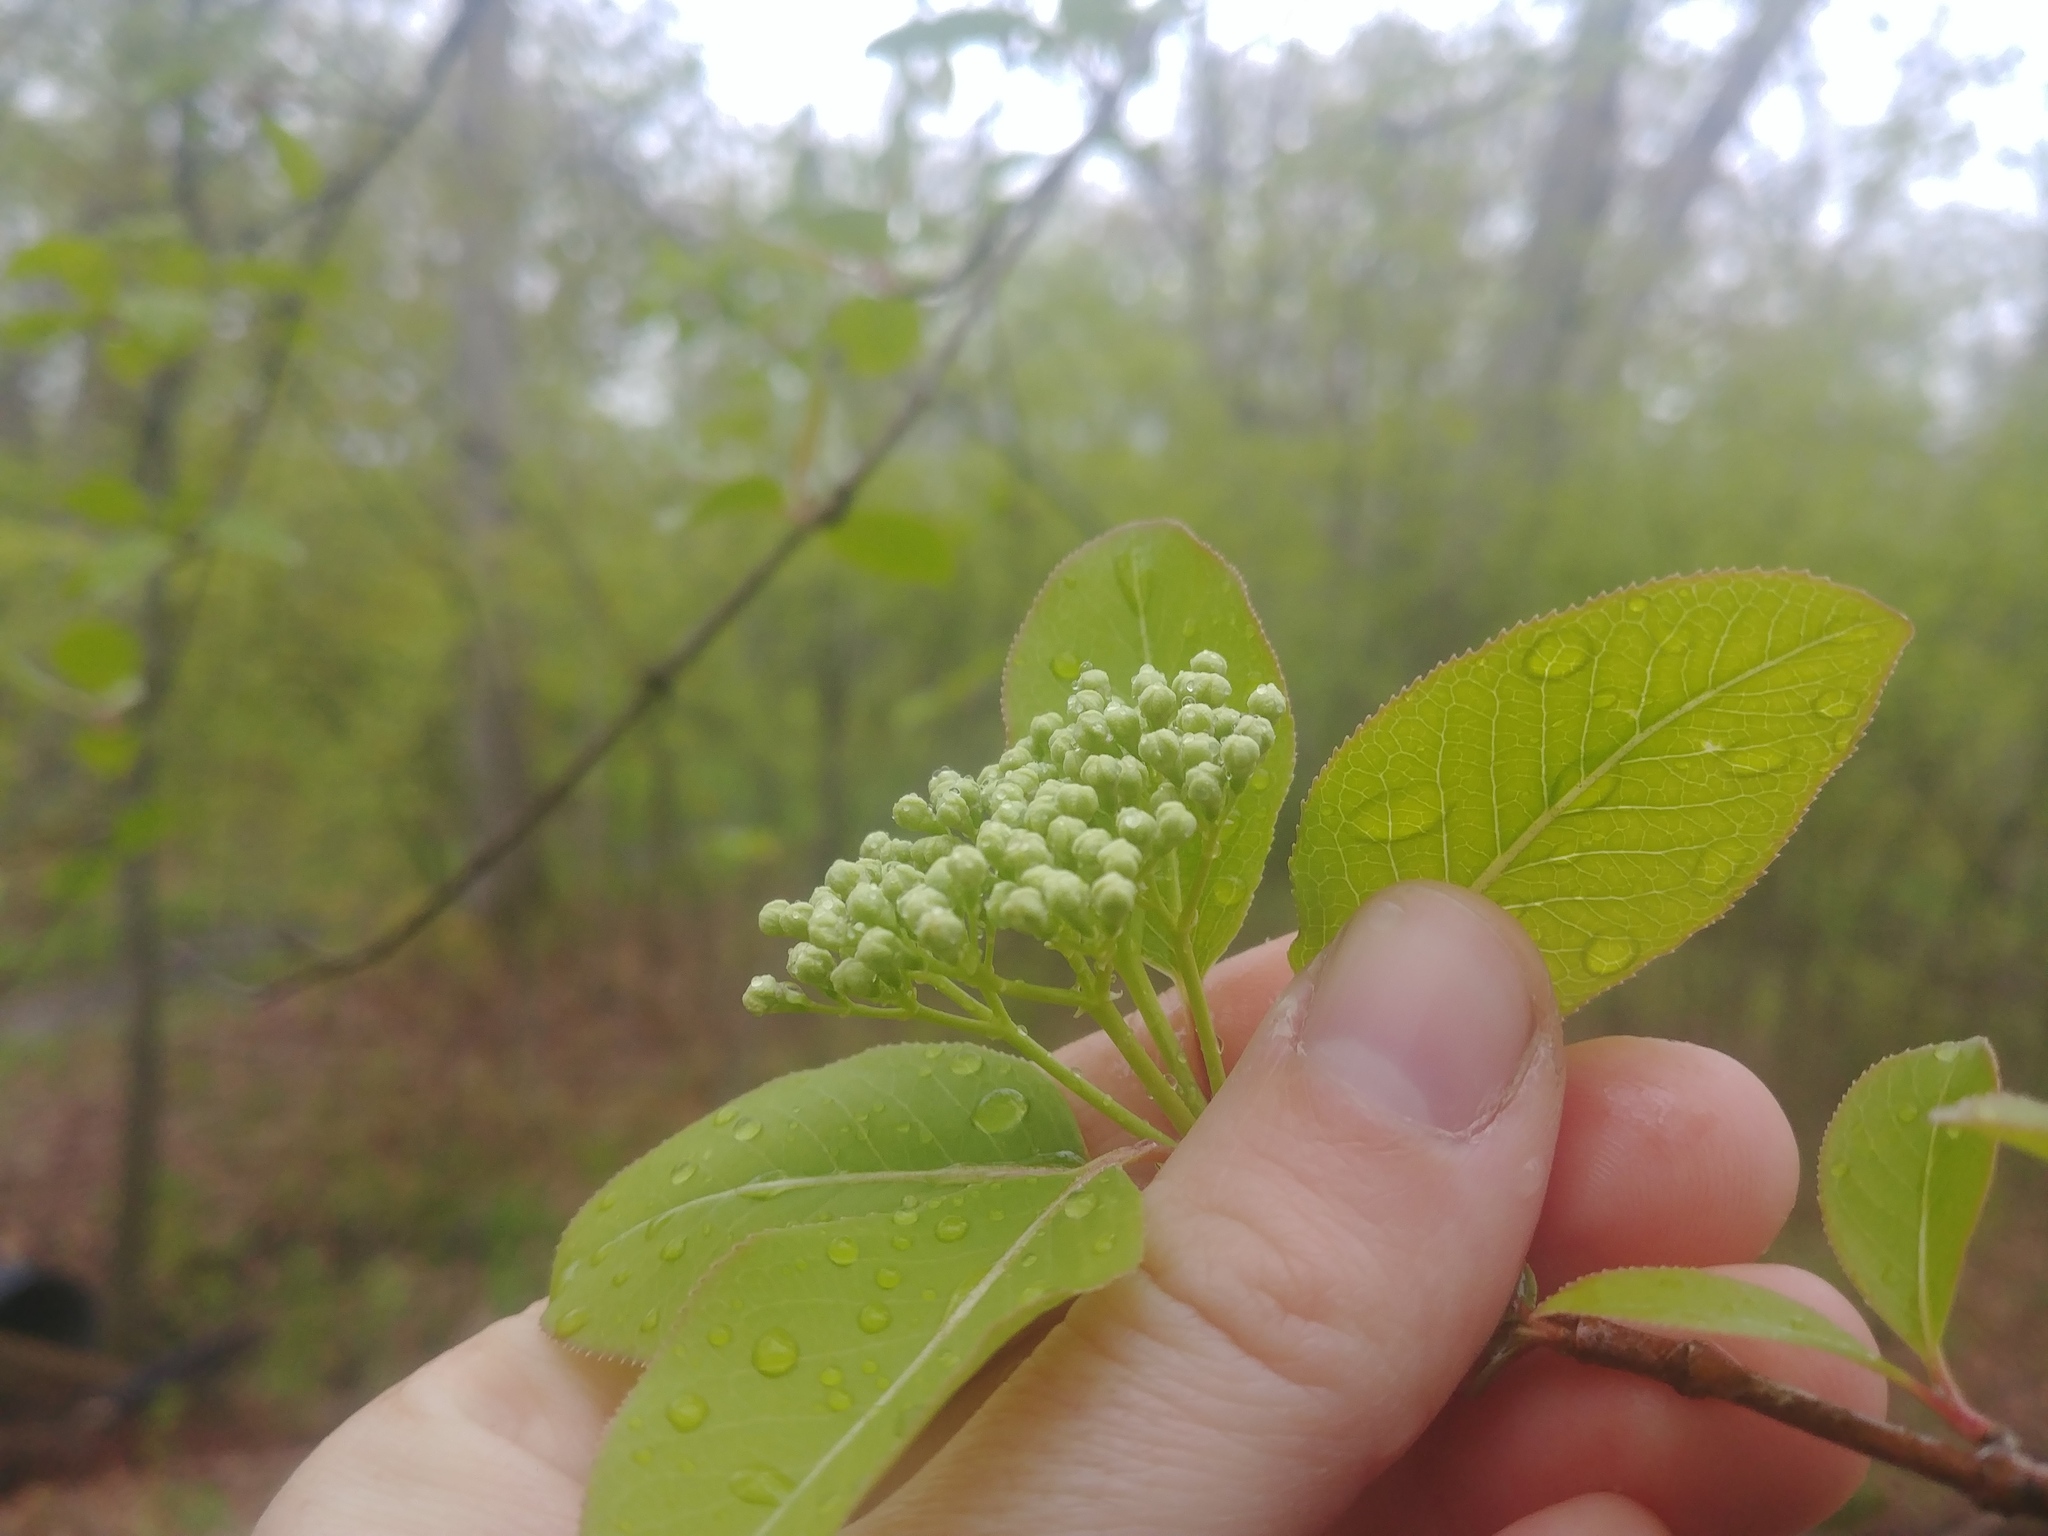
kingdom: Plantae
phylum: Tracheophyta
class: Magnoliopsida
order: Dipsacales
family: Viburnaceae
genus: Viburnum
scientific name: Viburnum prunifolium
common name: Black haw
